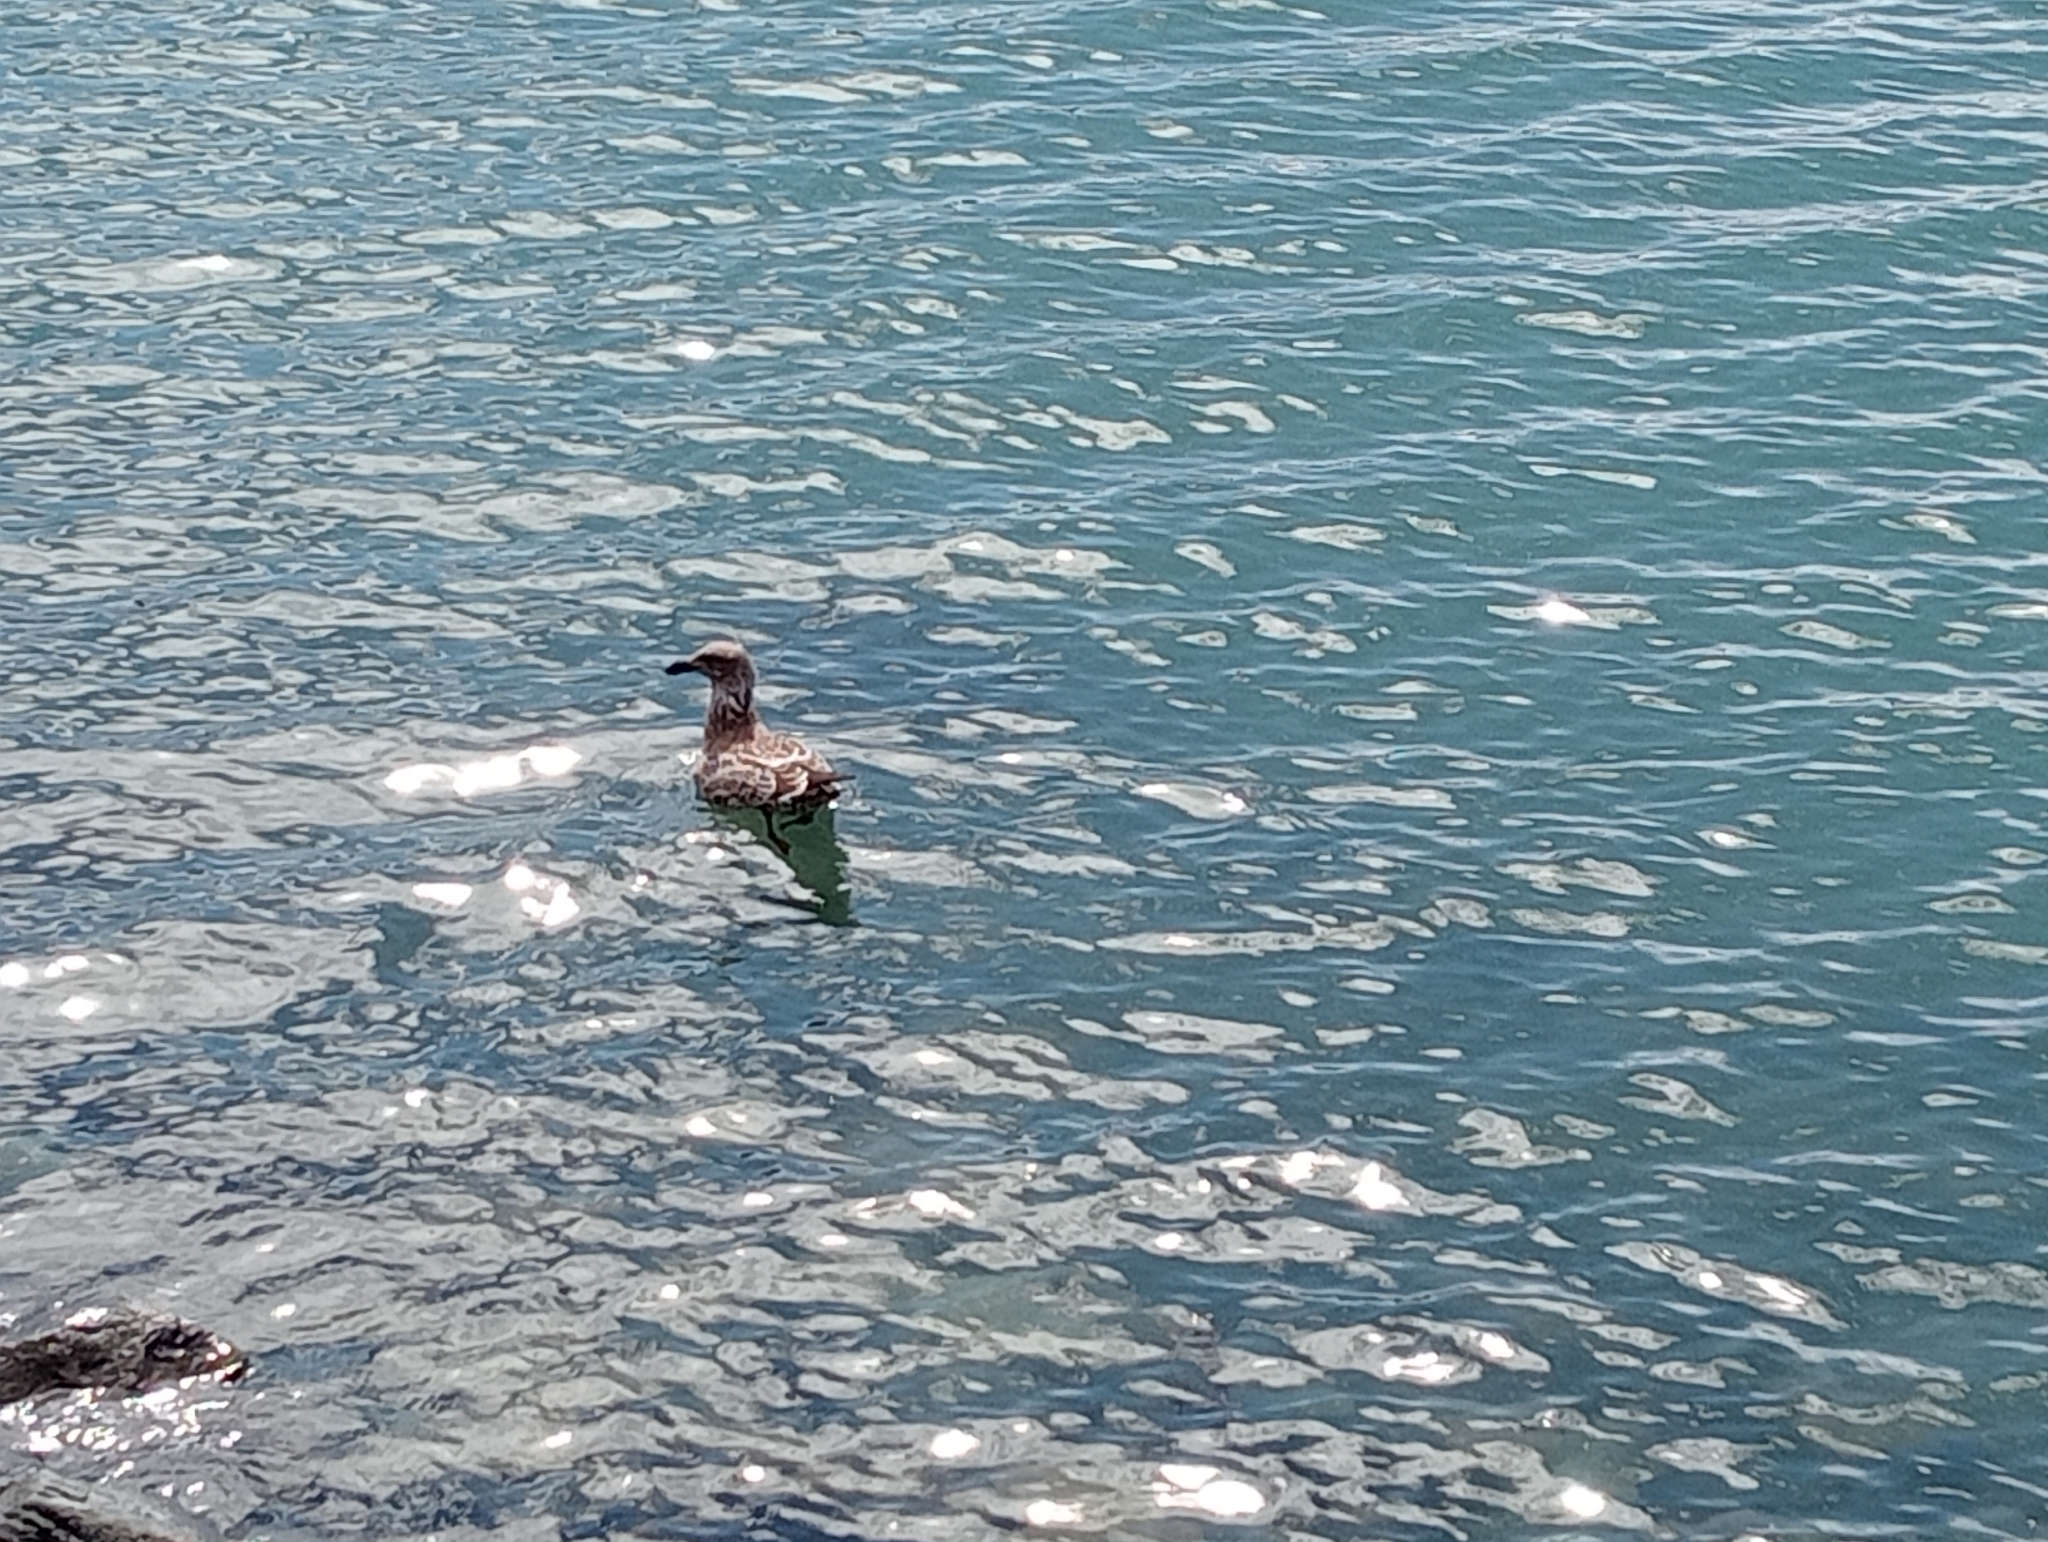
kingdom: Animalia
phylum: Chordata
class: Aves
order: Charadriiformes
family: Laridae
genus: Larus
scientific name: Larus dominicanus
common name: Kelp gull
